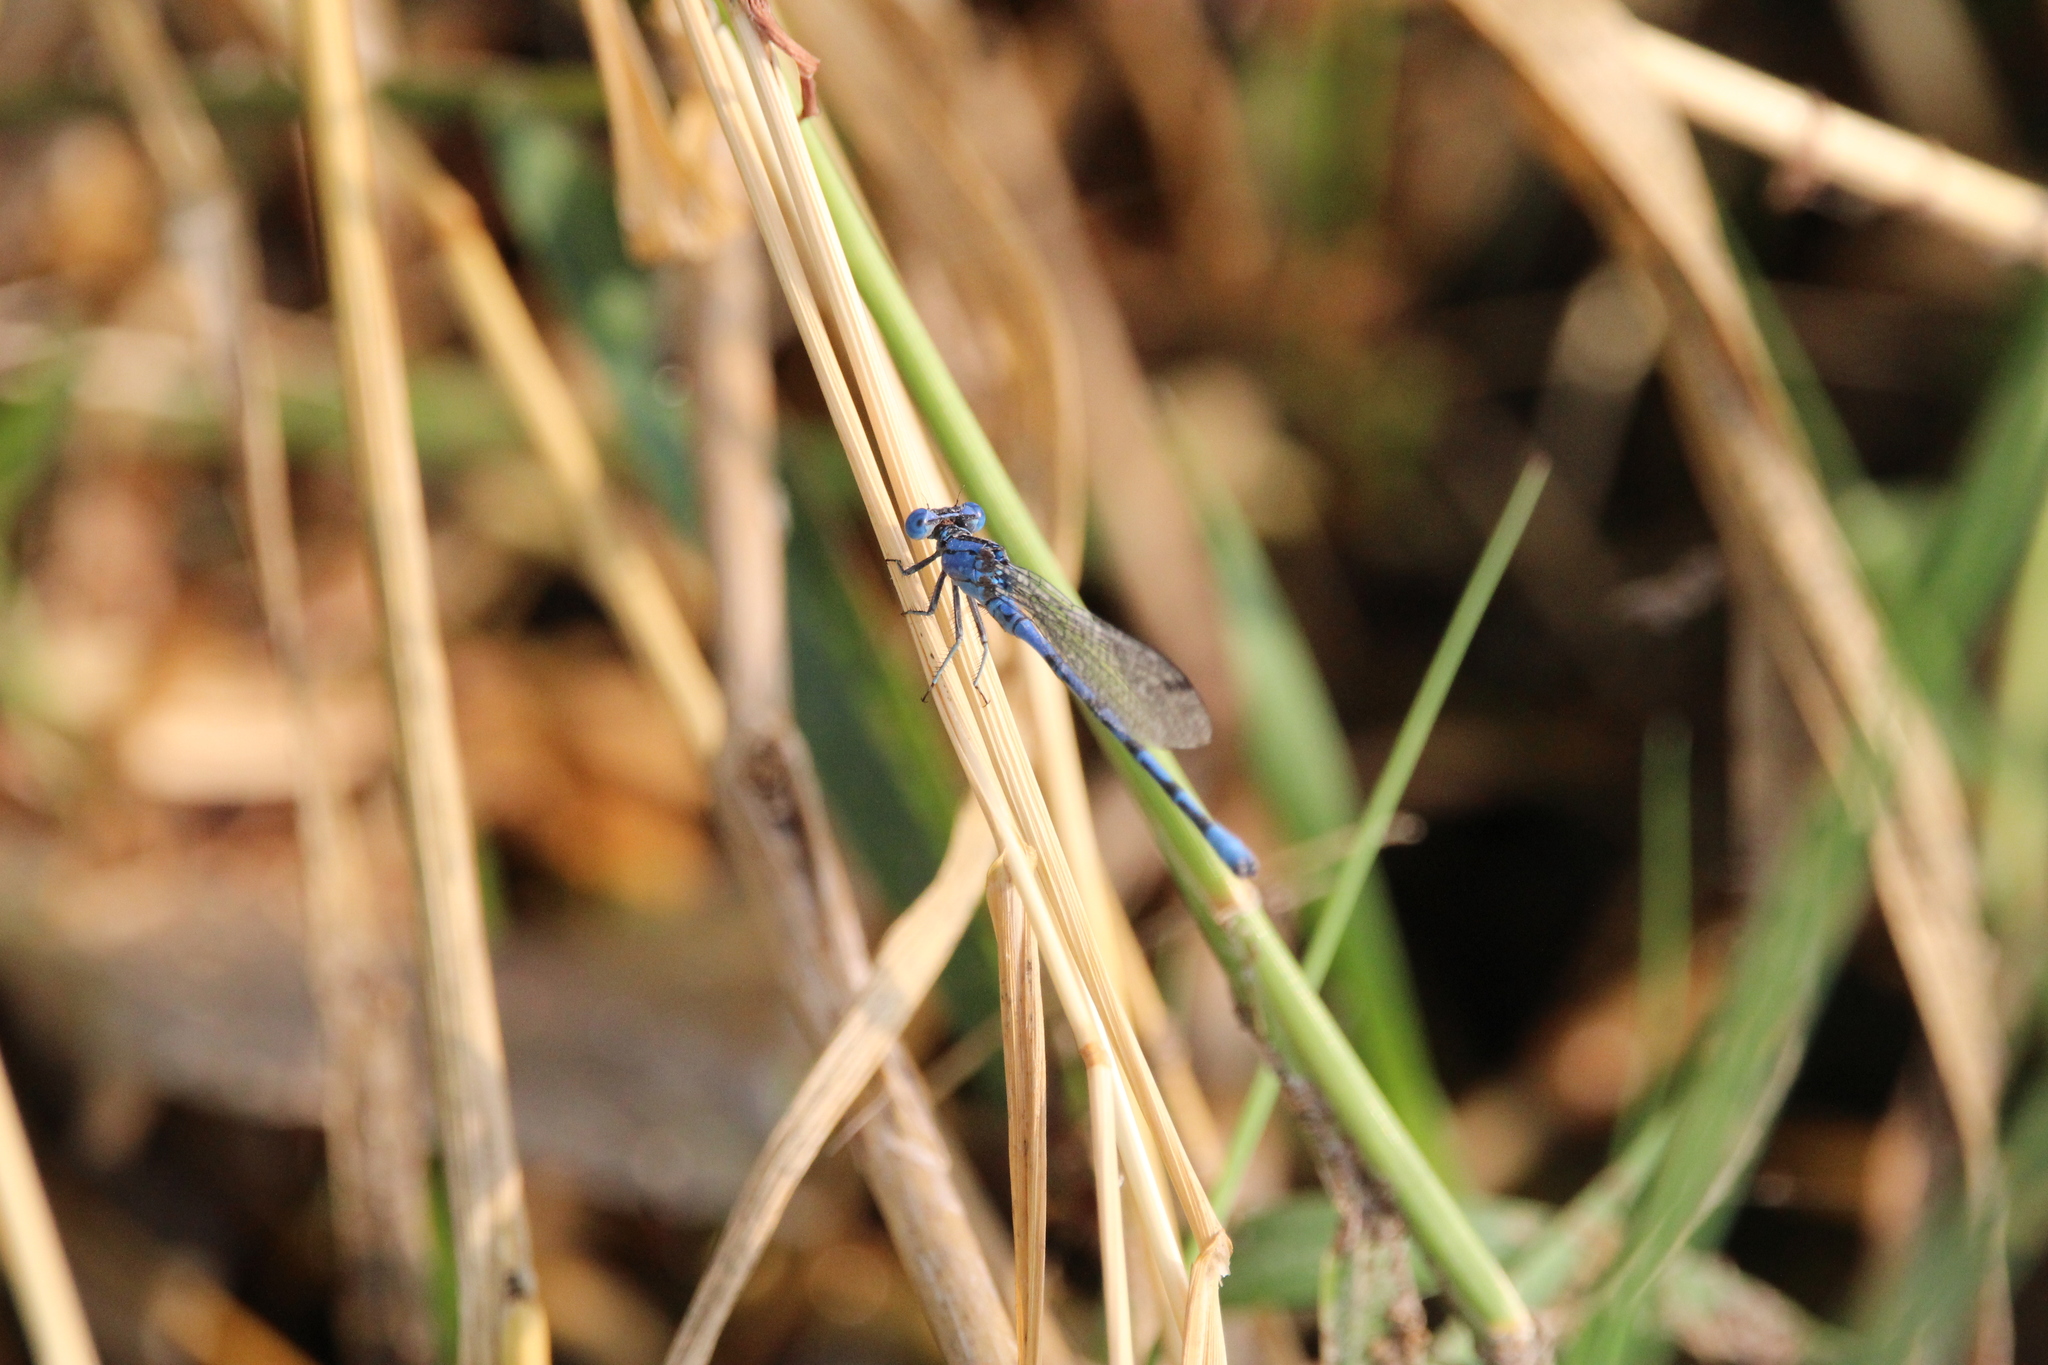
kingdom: Animalia
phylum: Arthropoda
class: Insecta
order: Odonata
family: Coenagrionidae
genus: Argia
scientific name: Argia funebris
